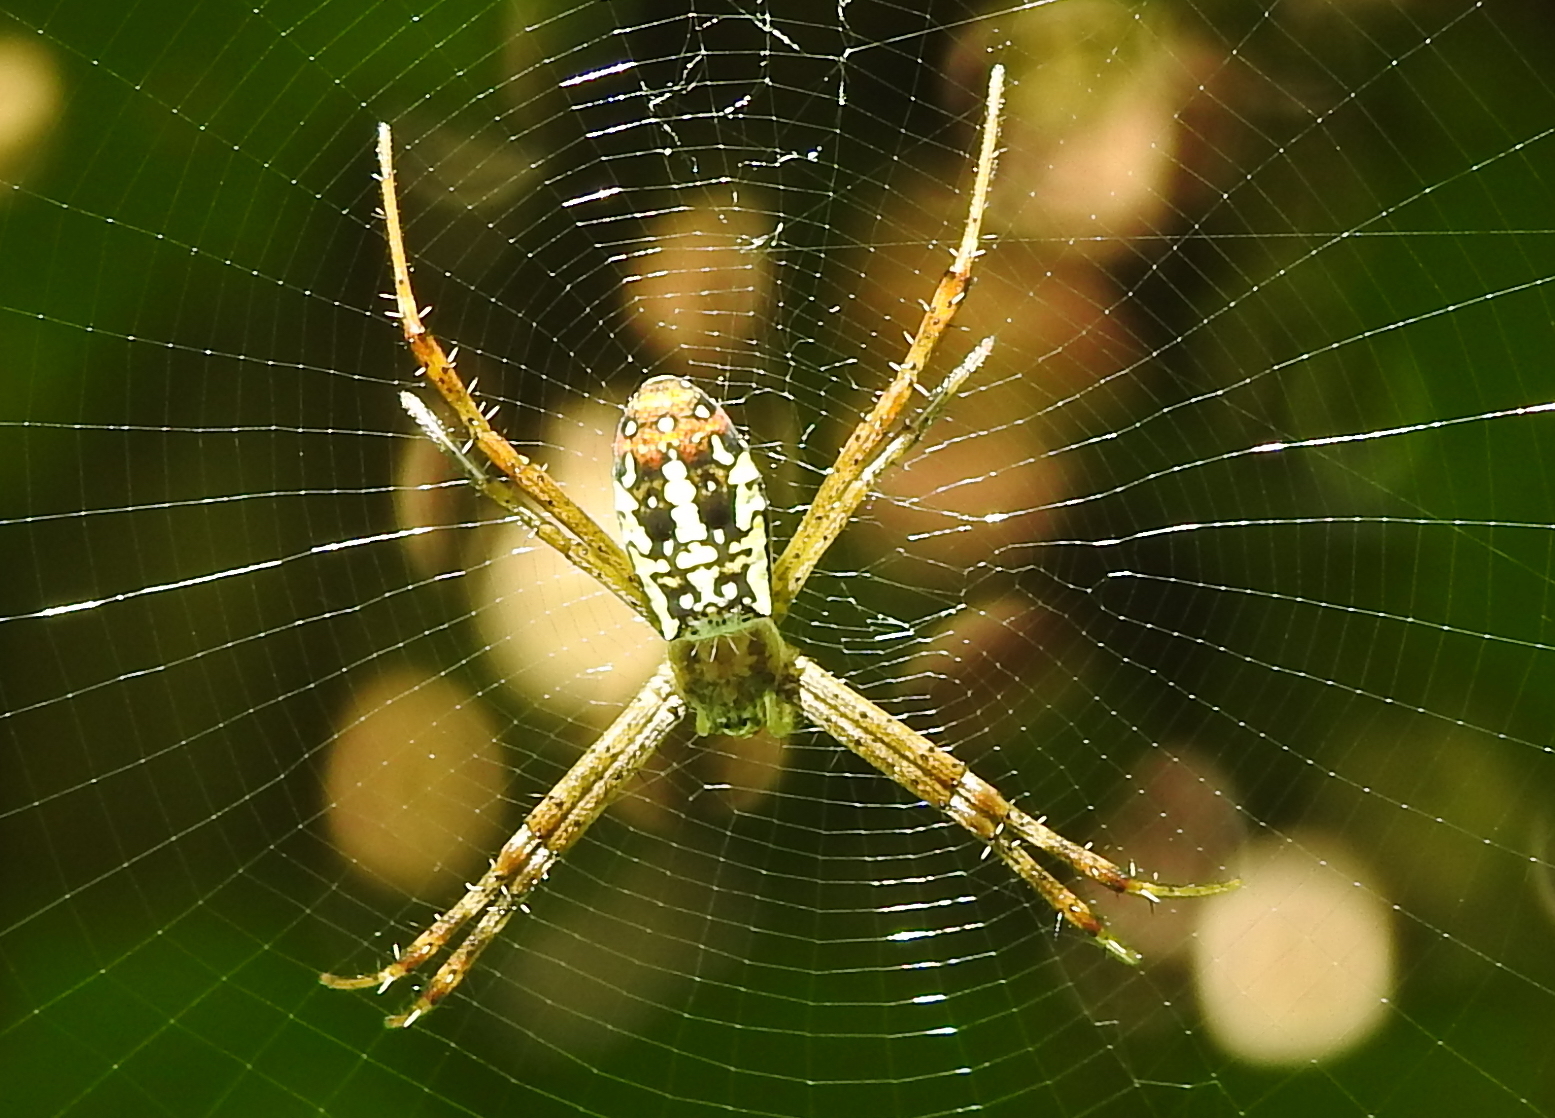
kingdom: Animalia
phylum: Arthropoda
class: Arachnida
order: Araneae
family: Araneidae
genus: Argiope
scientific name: Argiope dang
